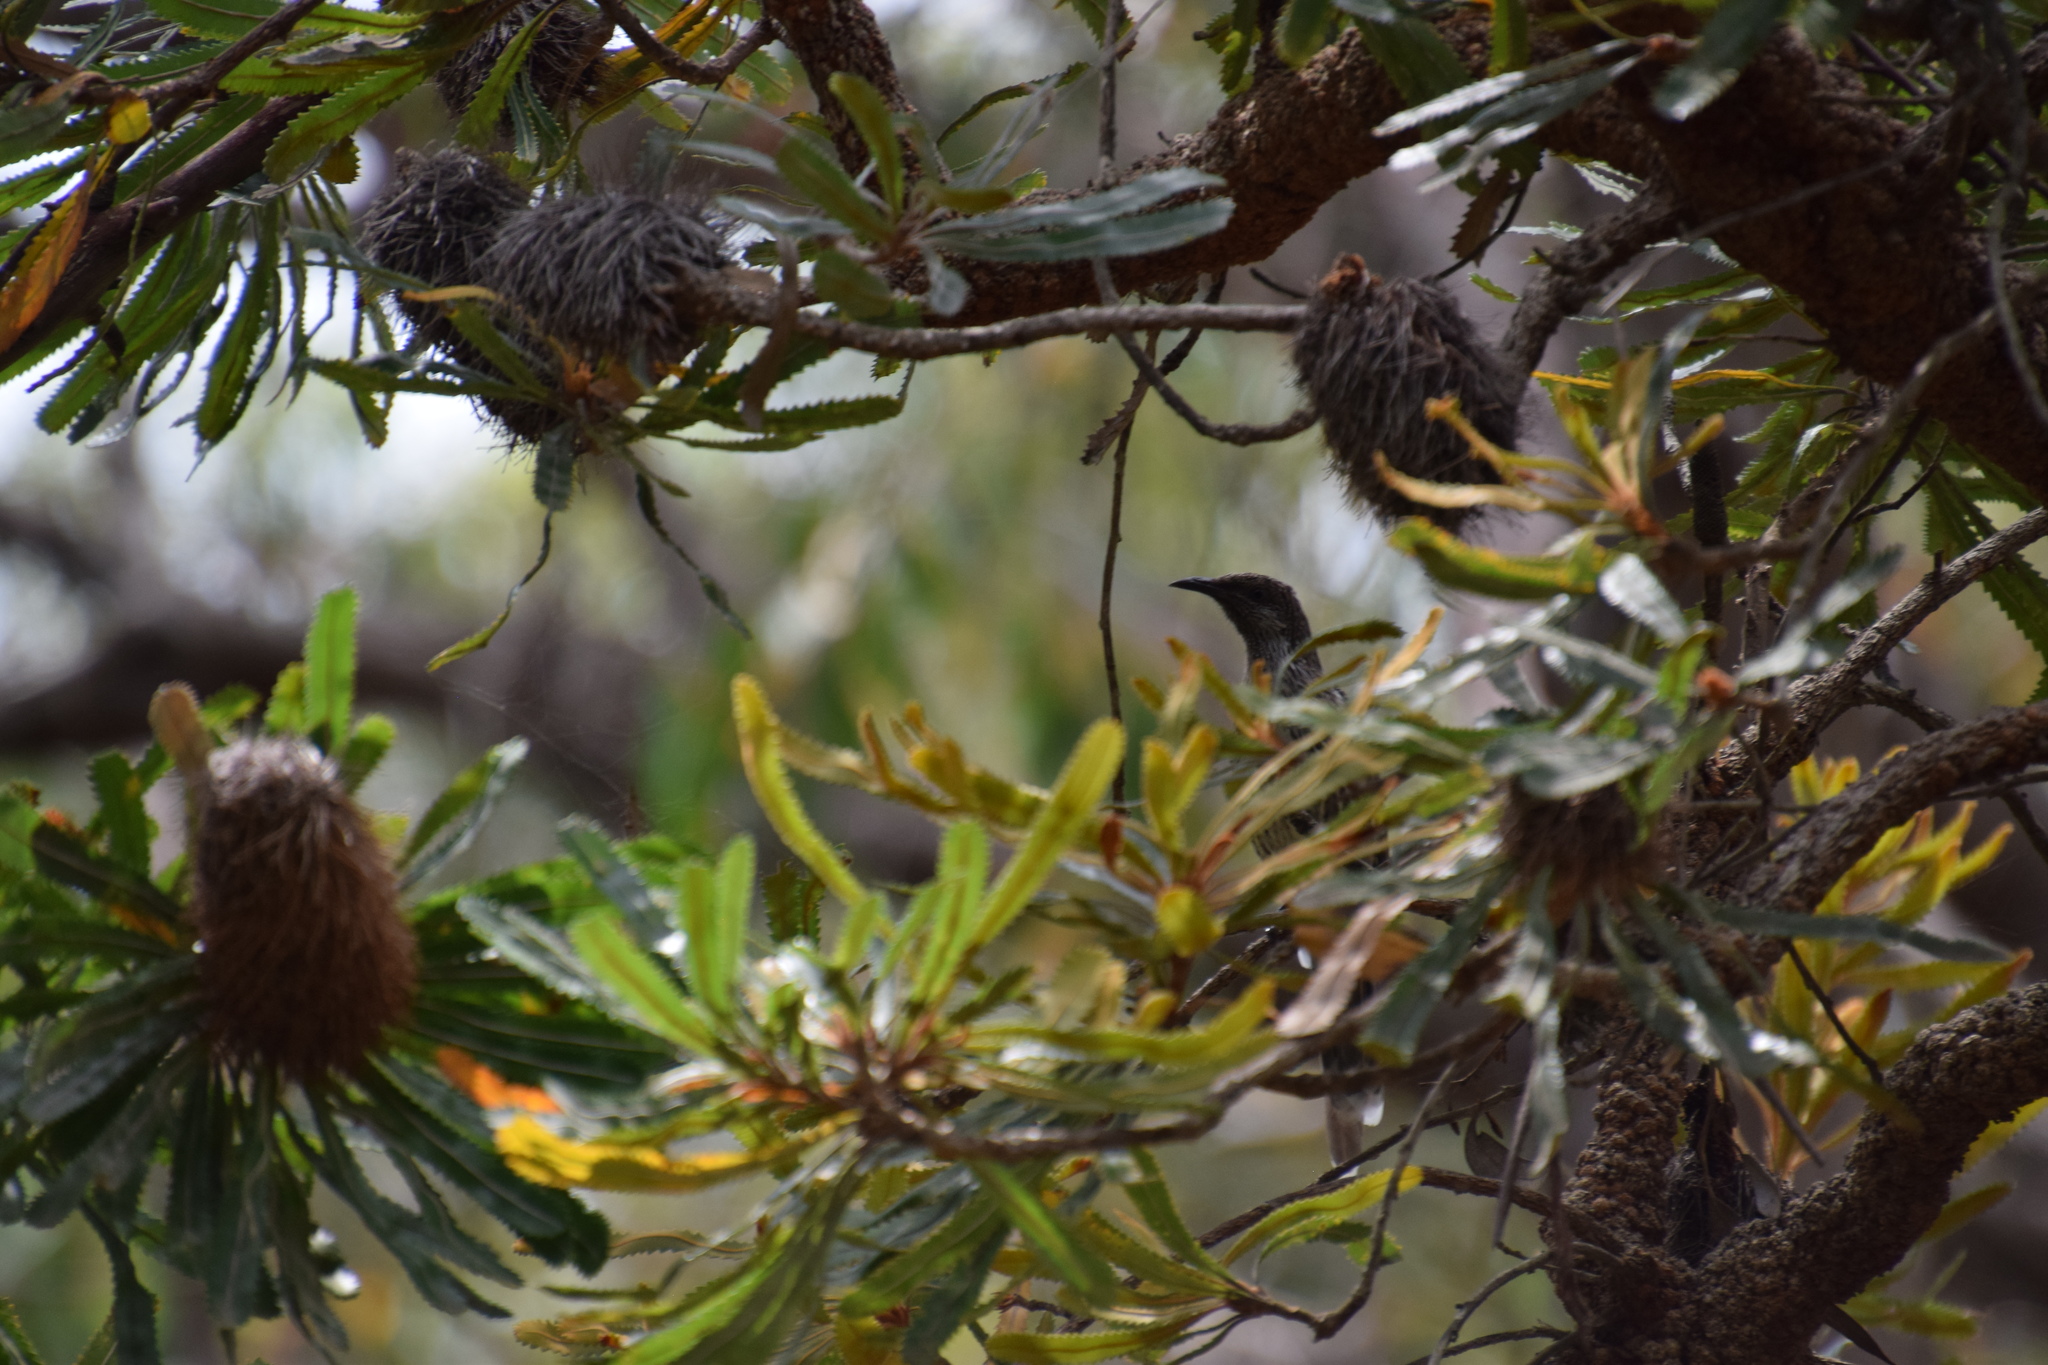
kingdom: Animalia
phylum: Chordata
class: Aves
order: Passeriformes
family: Meliphagidae
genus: Anthochaera
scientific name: Anthochaera chrysoptera
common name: Little wattlebird
